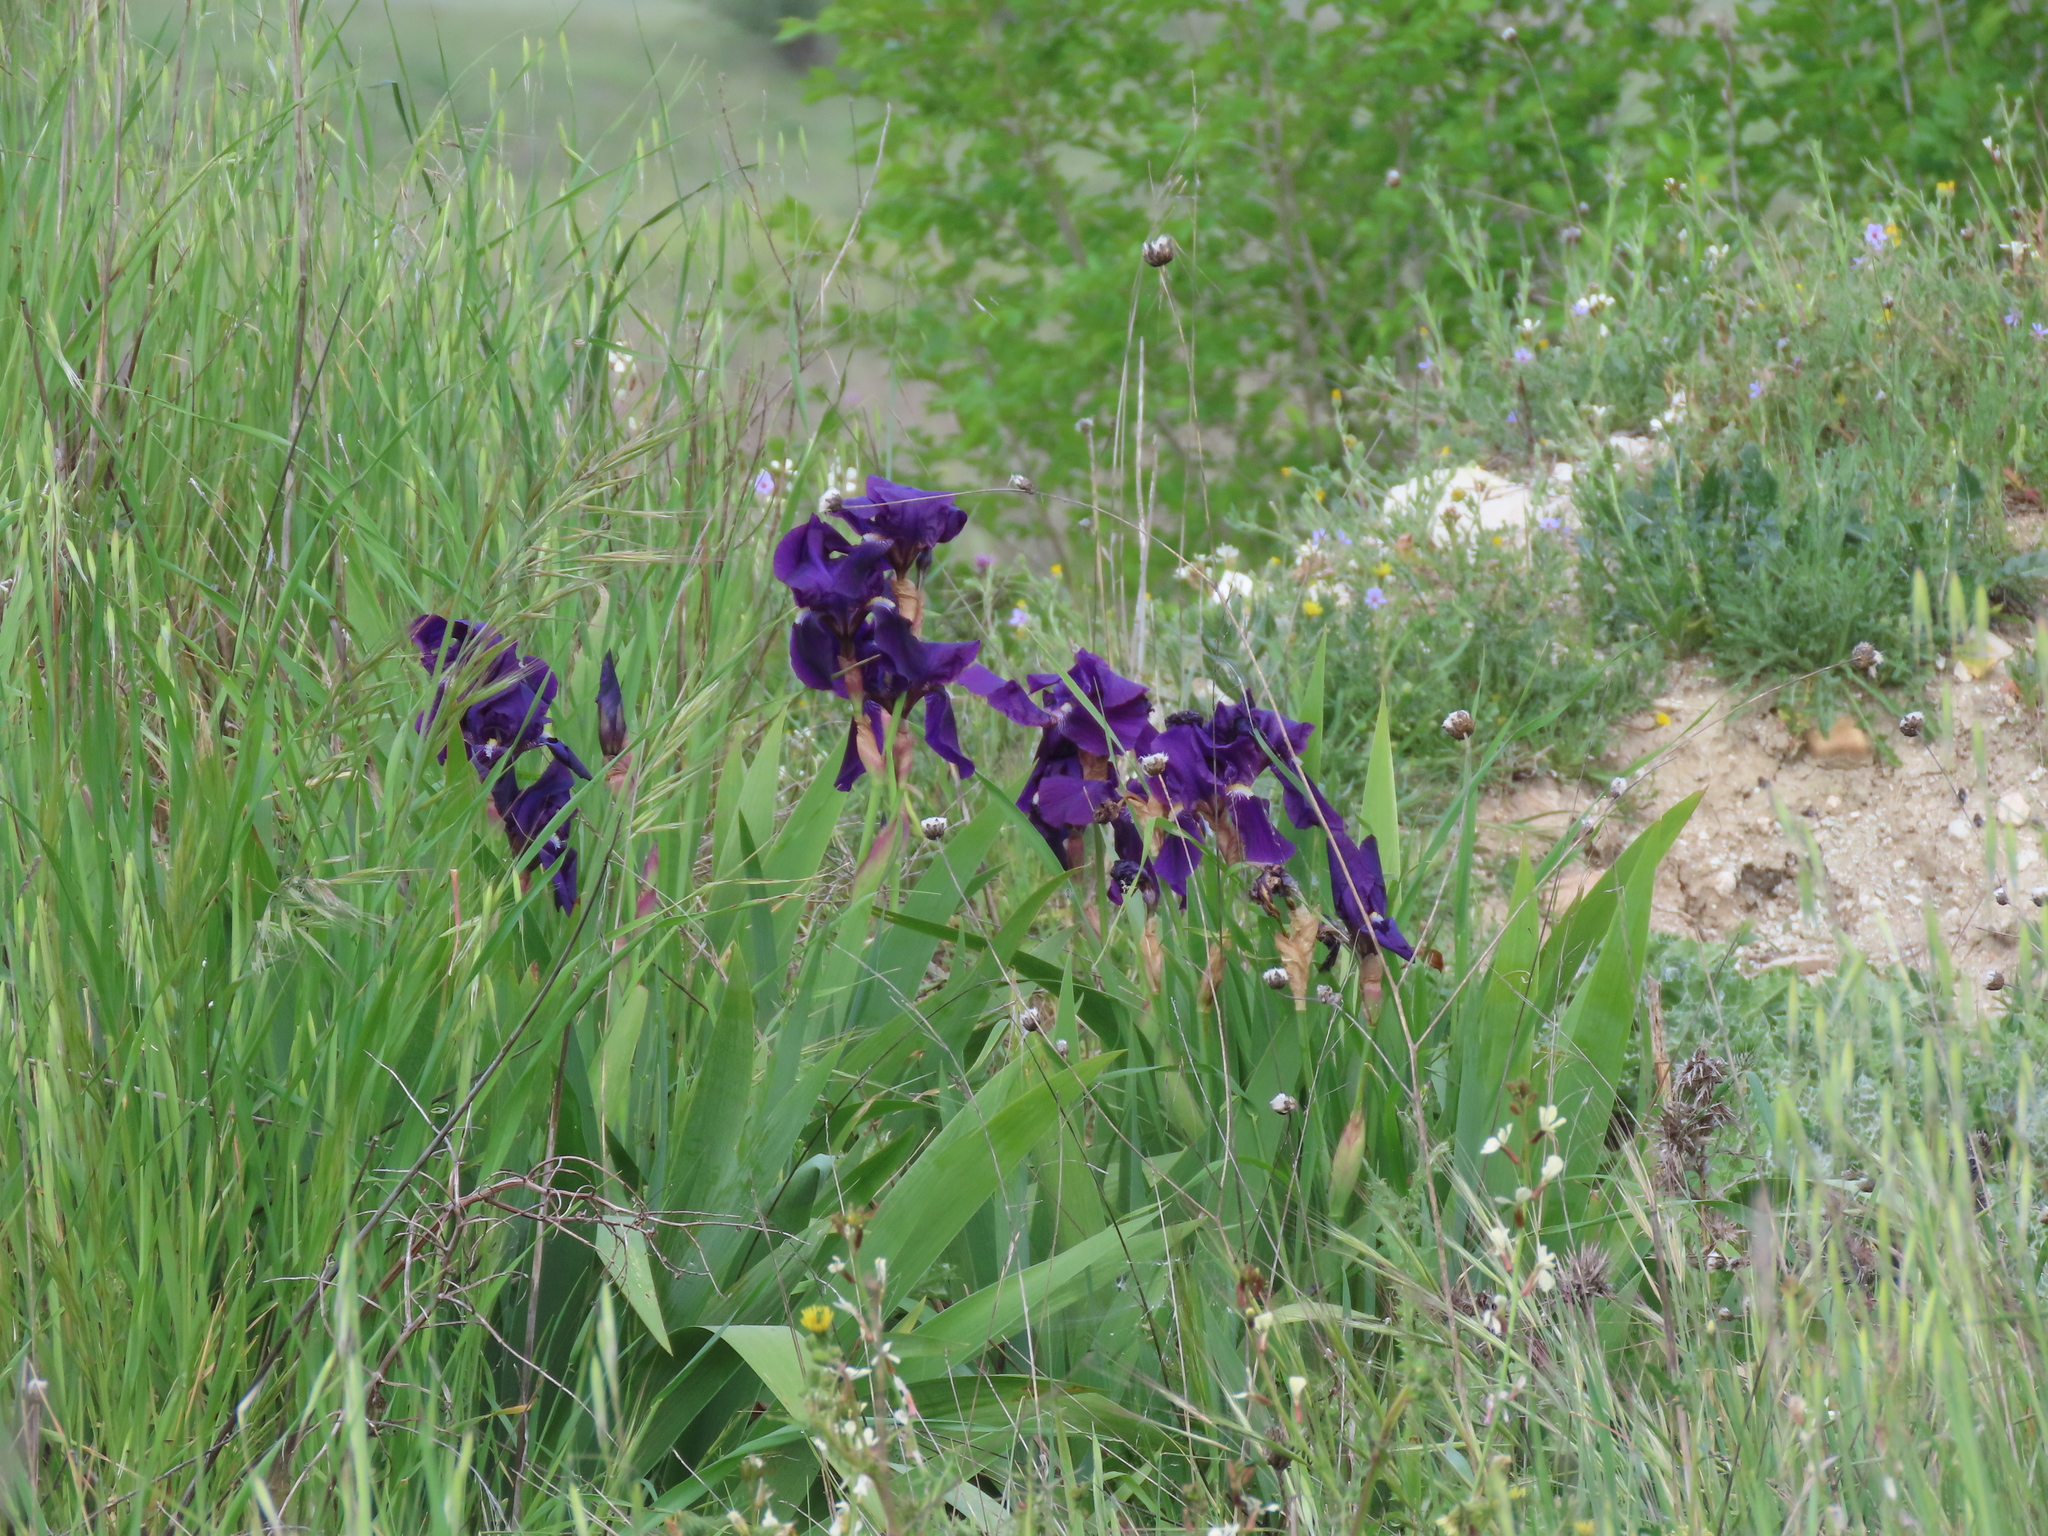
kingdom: Plantae
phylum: Tracheophyta
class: Liliopsida
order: Asparagales
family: Iridaceae
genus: Iris
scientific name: Iris germanica
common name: German iris
